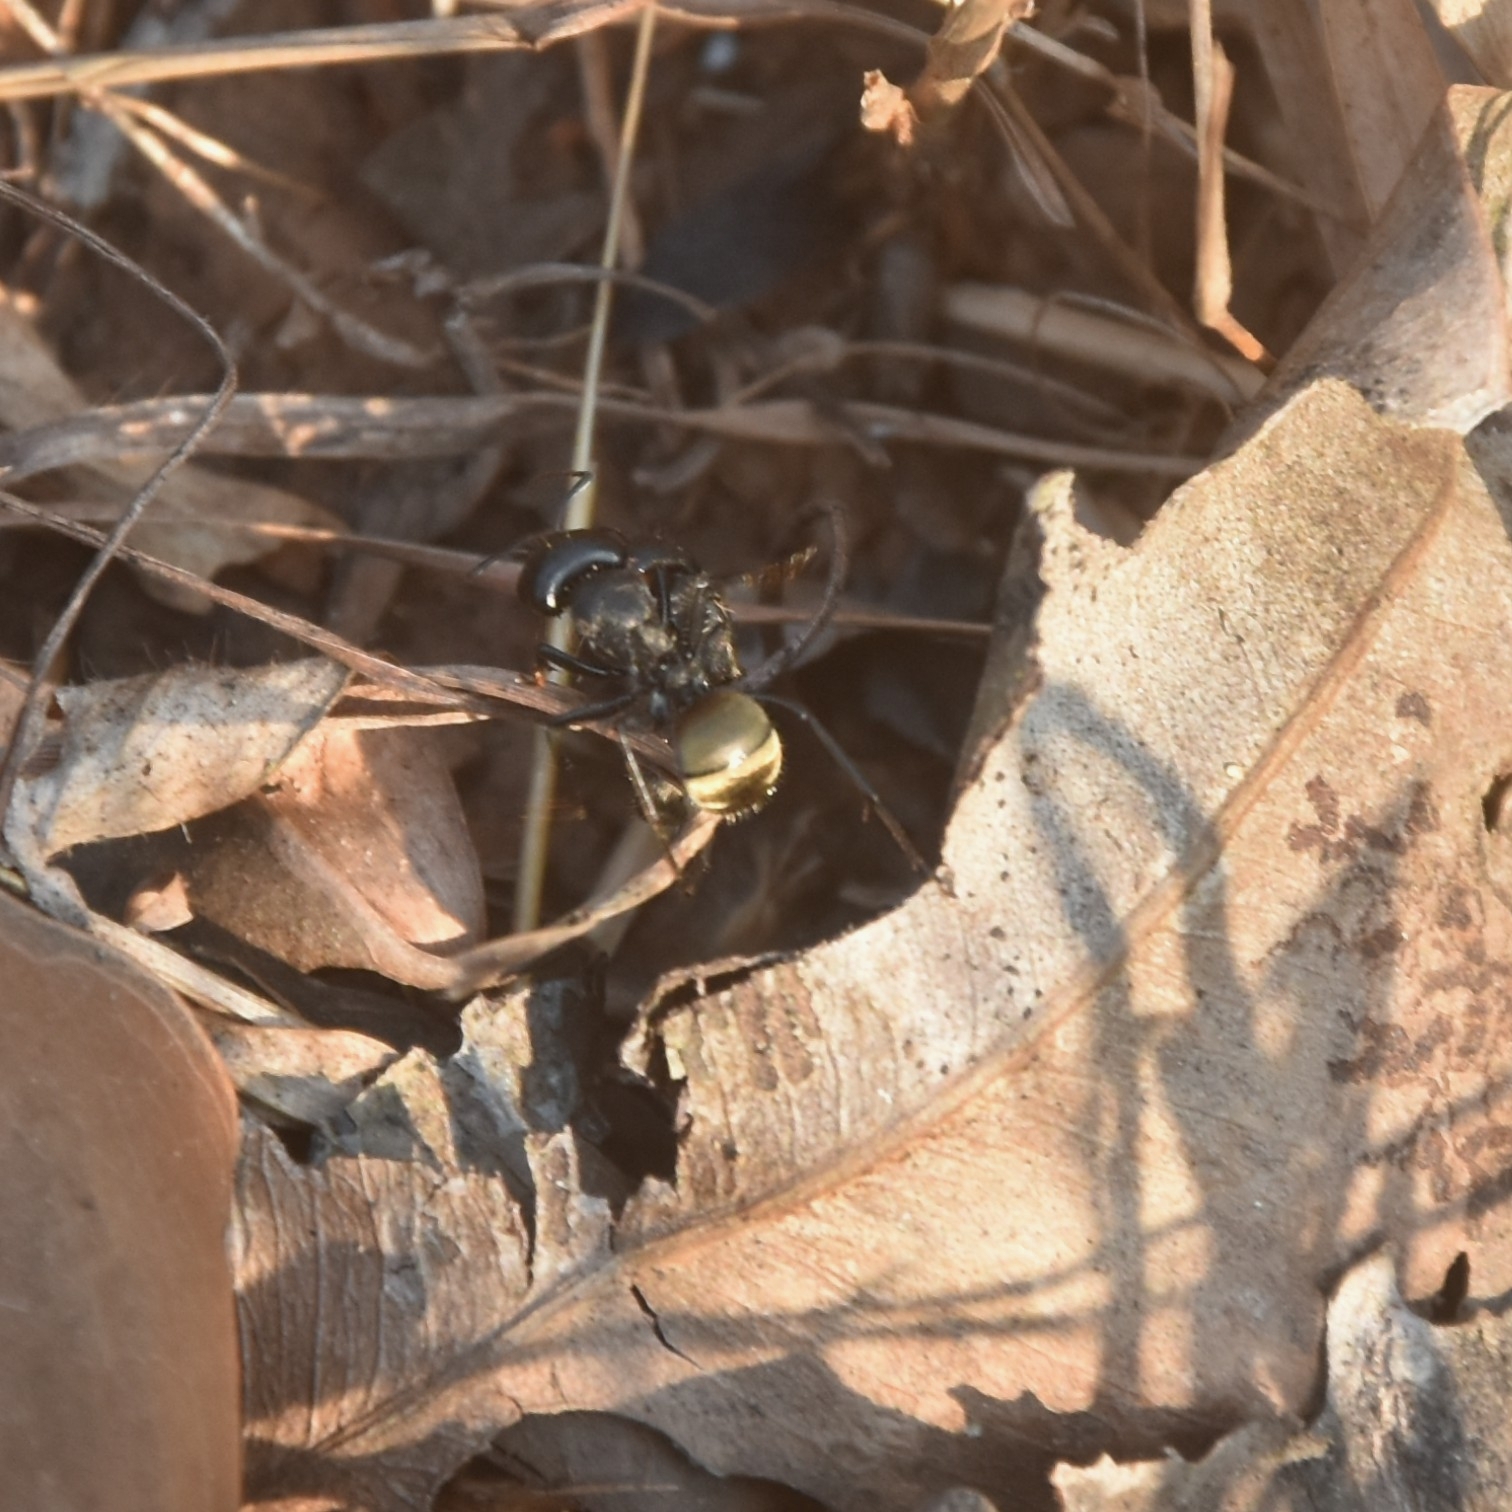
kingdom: Animalia
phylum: Arthropoda
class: Insecta
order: Hymenoptera
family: Formicidae
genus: Camponotus
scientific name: Camponotus sericeus
